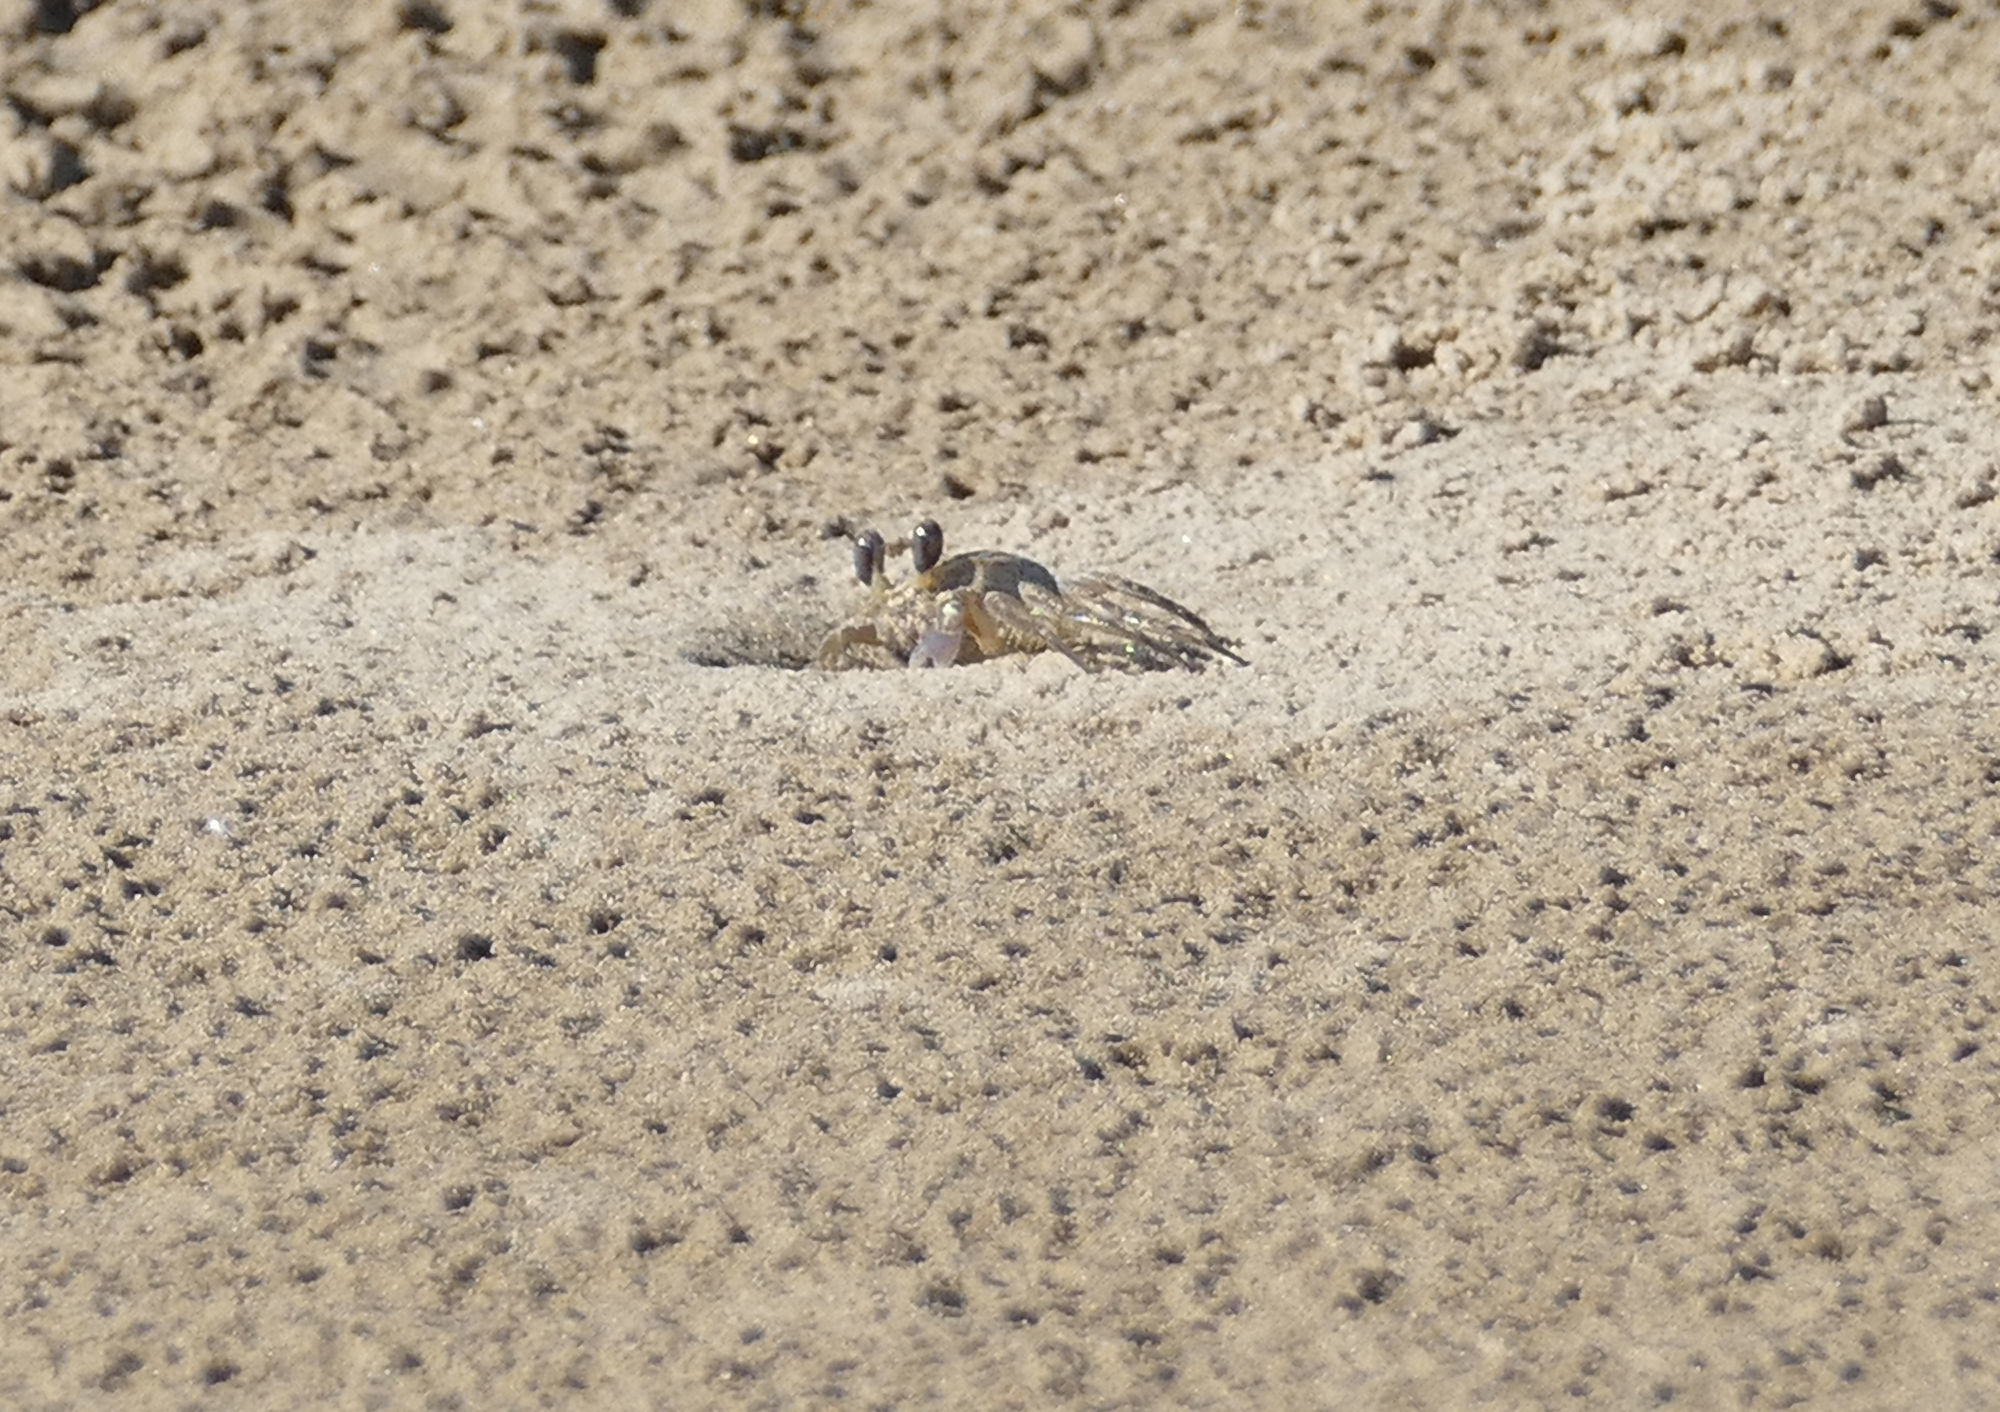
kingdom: Animalia
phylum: Arthropoda
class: Malacostraca
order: Decapoda
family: Ocypodidae
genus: Ocypode
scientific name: Ocypode quadrata
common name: Ghost crab
